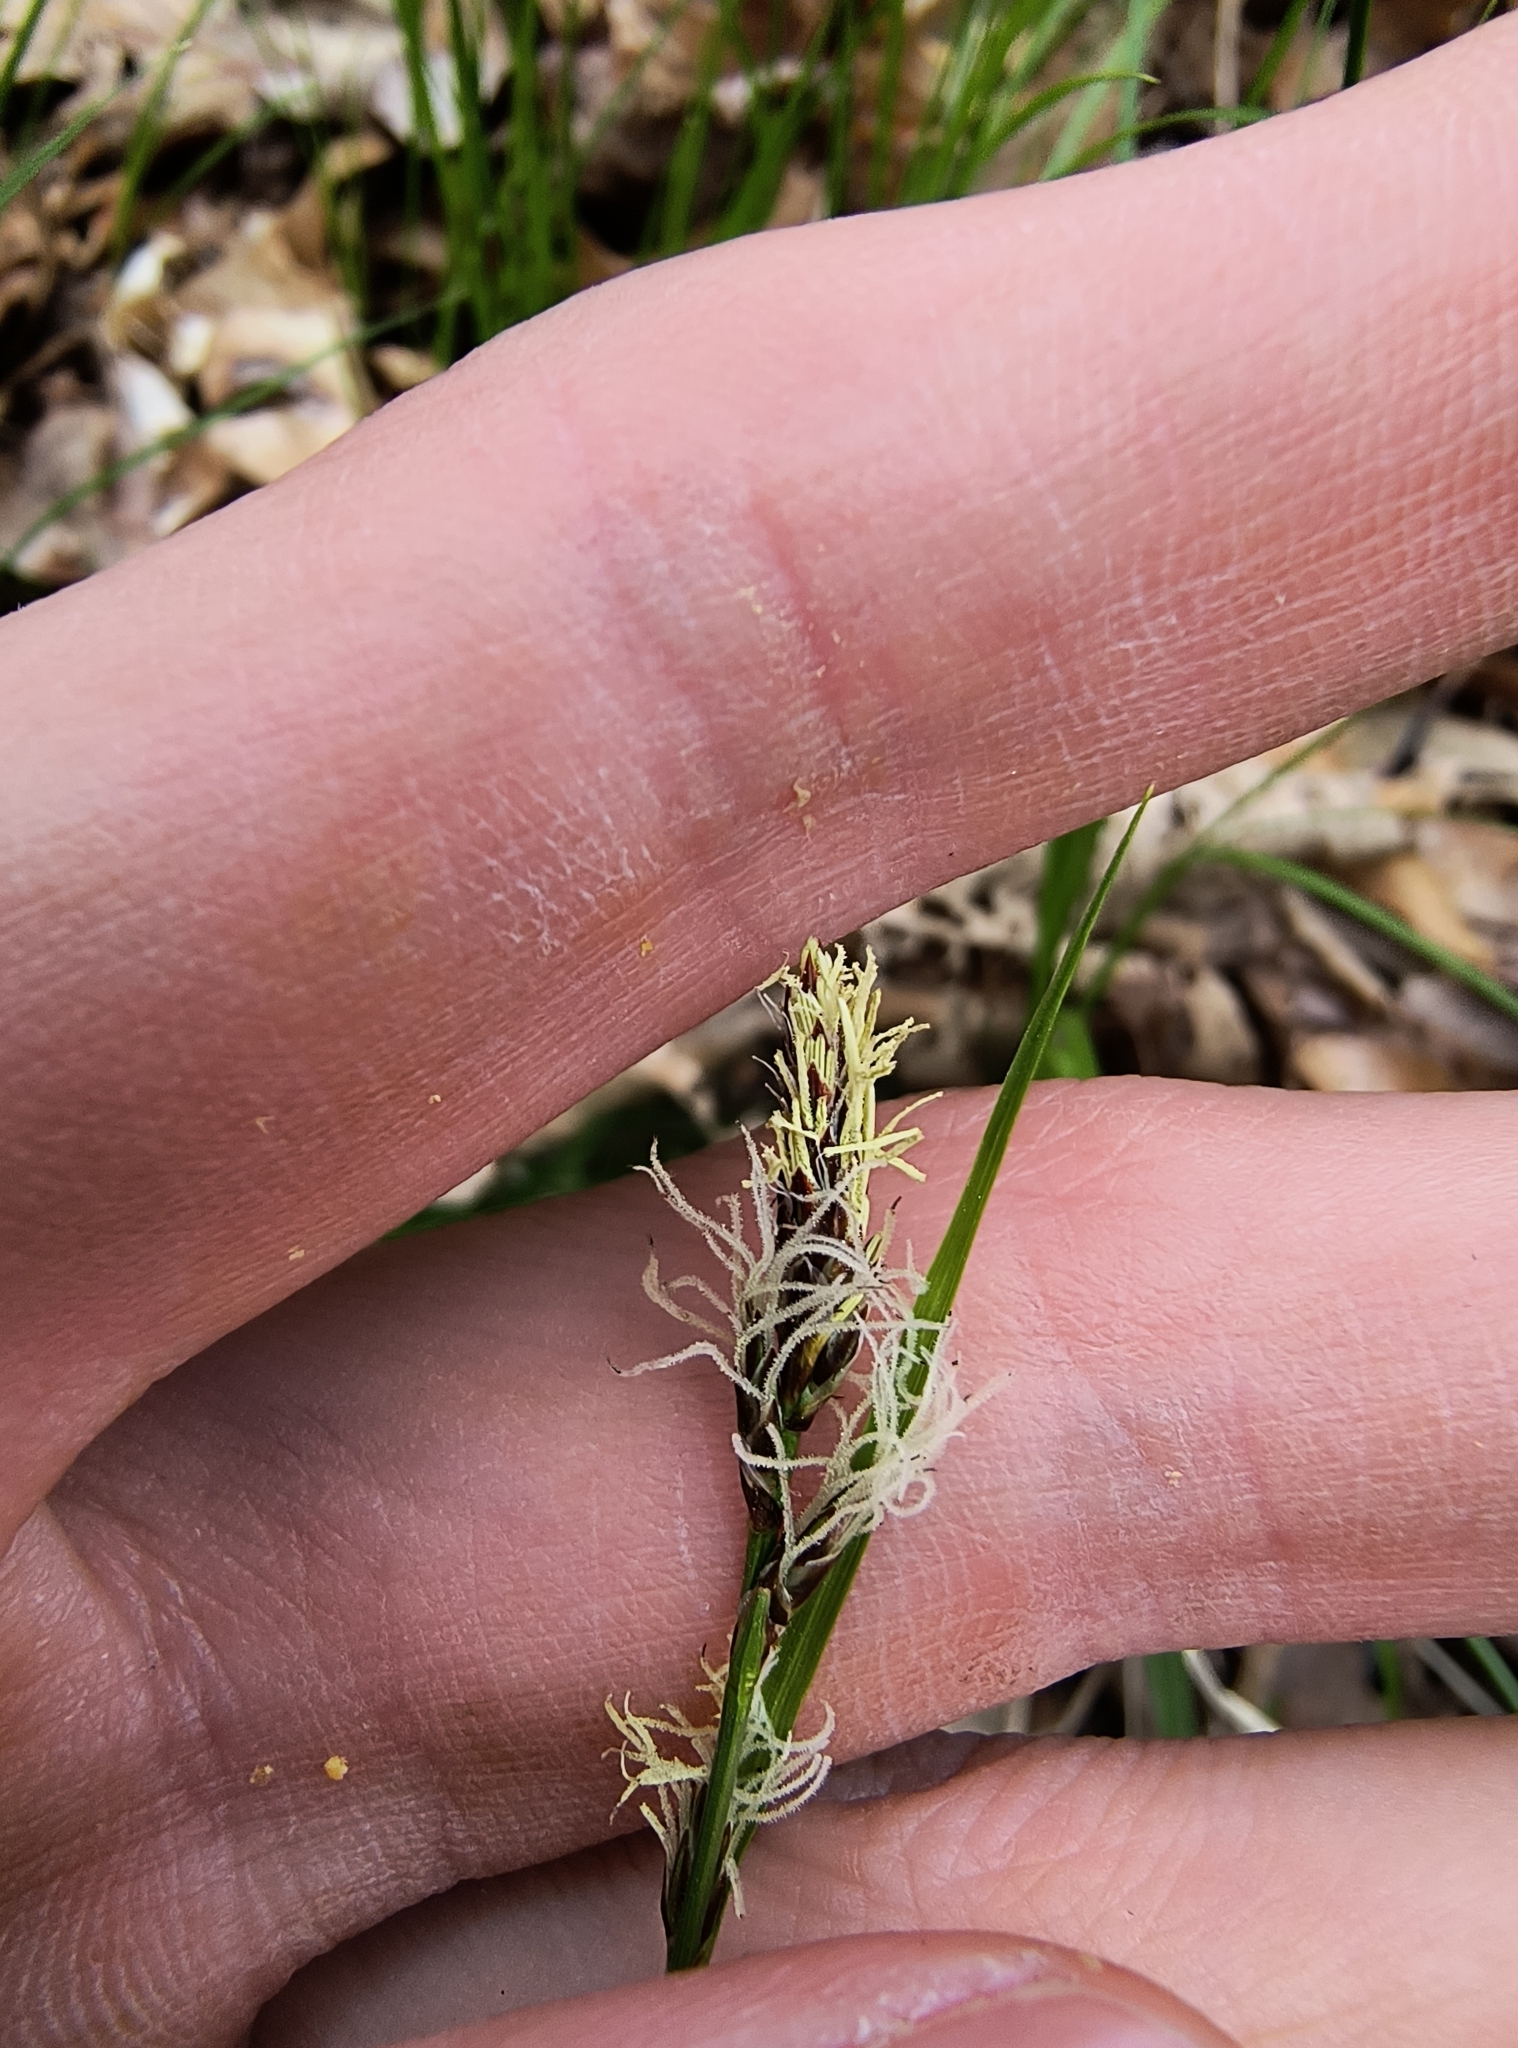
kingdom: Plantae
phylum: Tracheophyta
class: Liliopsida
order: Poales
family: Cyperaceae
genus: Carex
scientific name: Carex pensylvanica
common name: Common oak sedge
